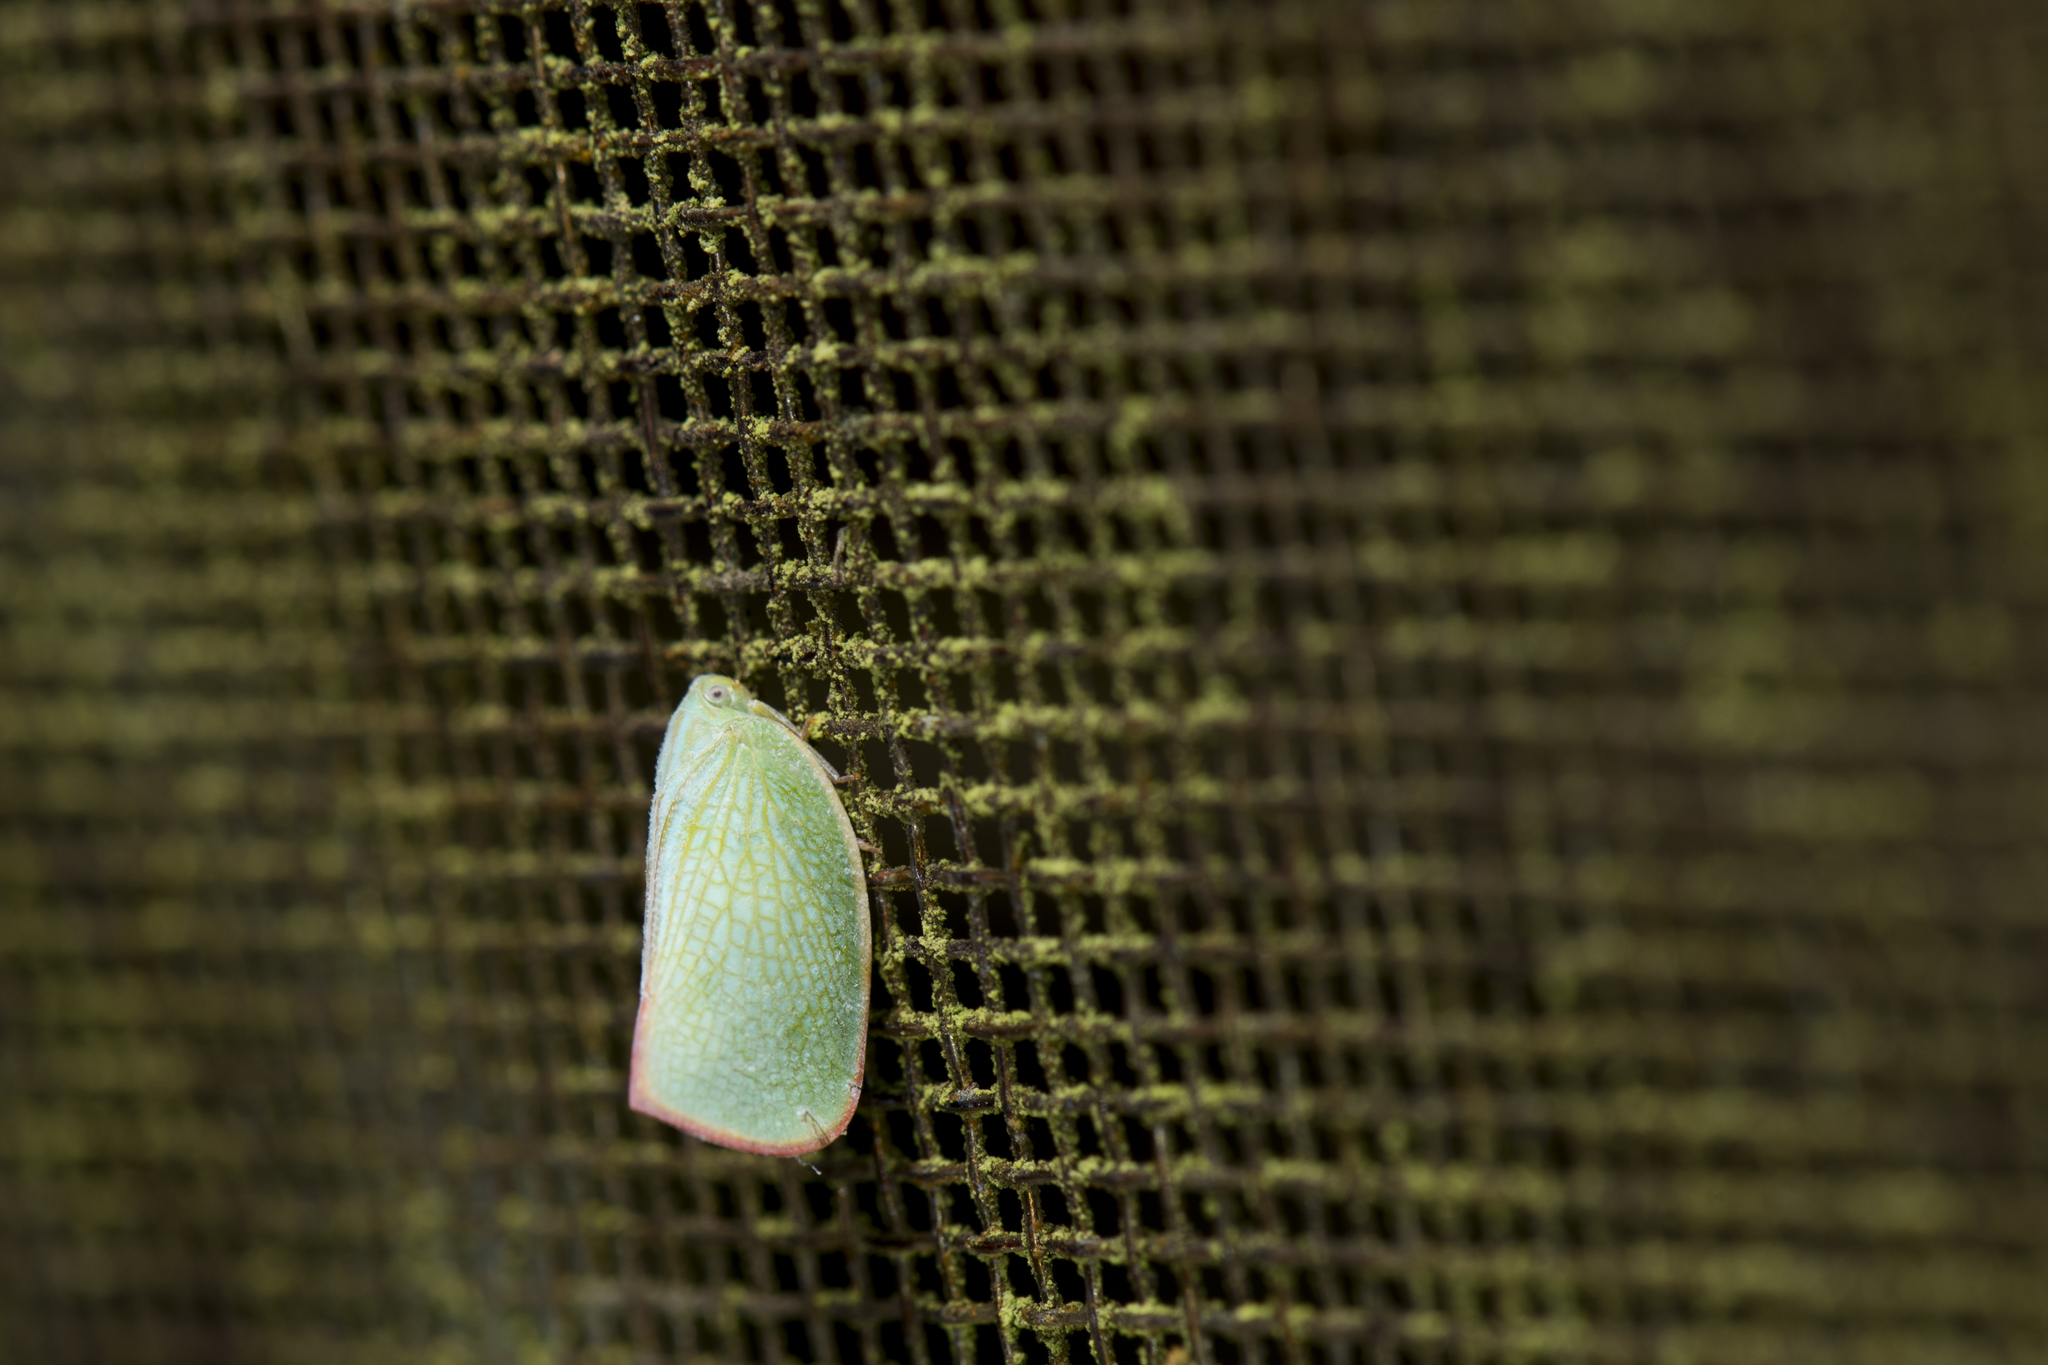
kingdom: Animalia
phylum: Arthropoda
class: Insecta
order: Hemiptera
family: Flatidae
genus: Geisha
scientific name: Geisha distinctissima
